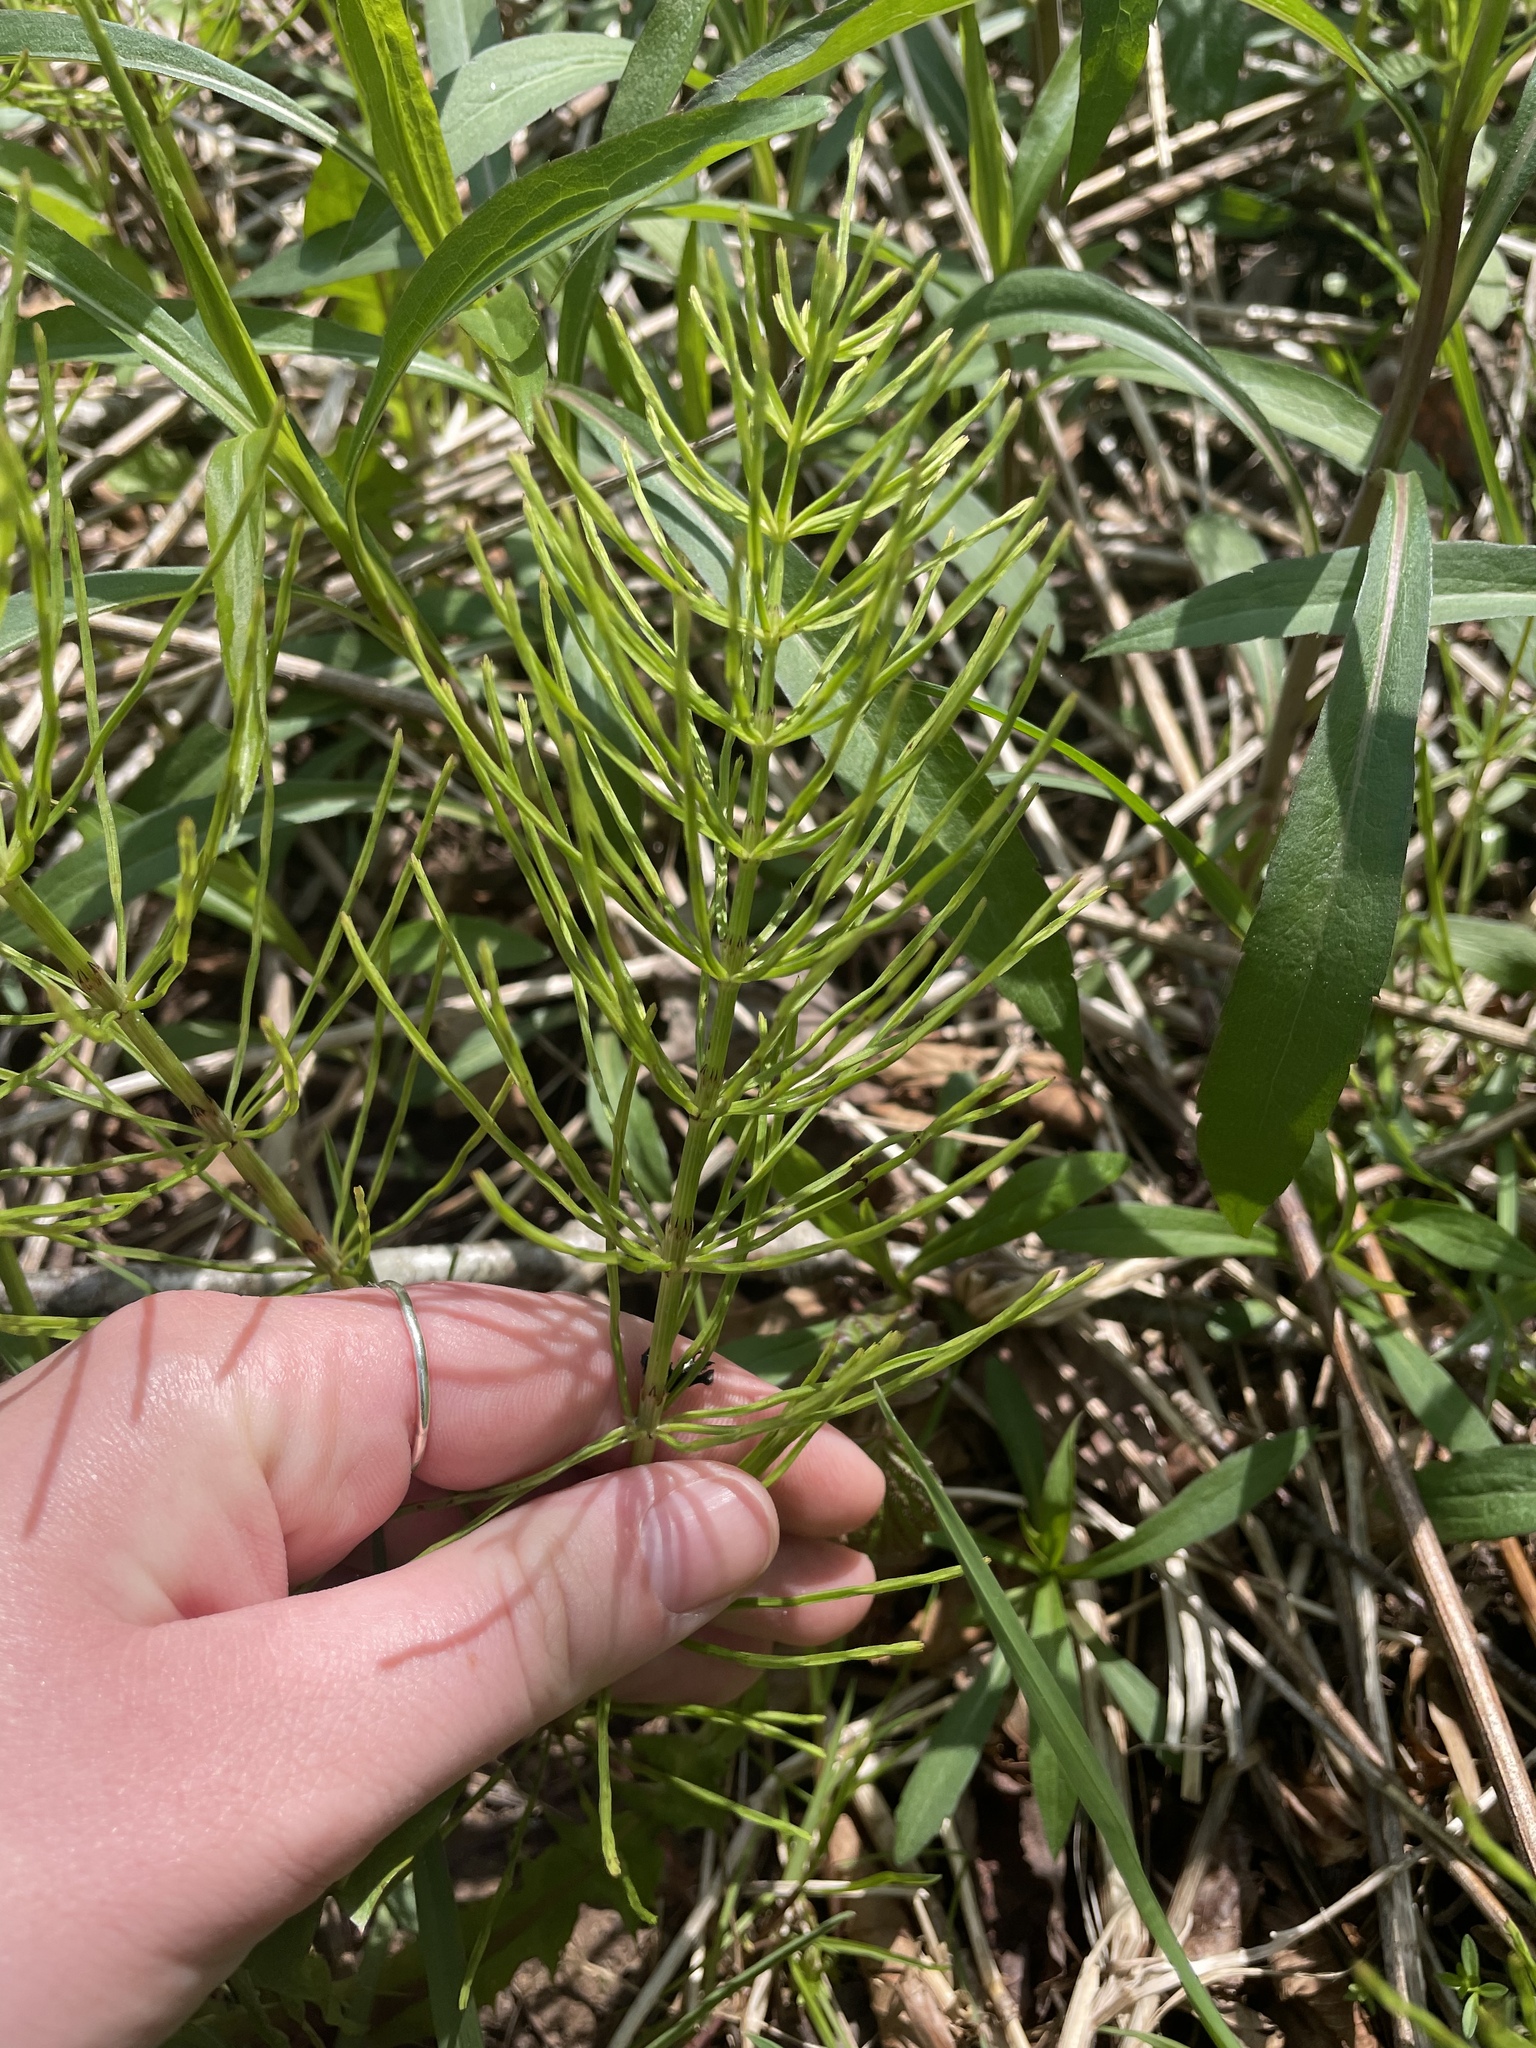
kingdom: Plantae
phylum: Tracheophyta
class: Polypodiopsida
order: Equisetales
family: Equisetaceae
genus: Equisetum
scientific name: Equisetum arvense
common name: Field horsetail
